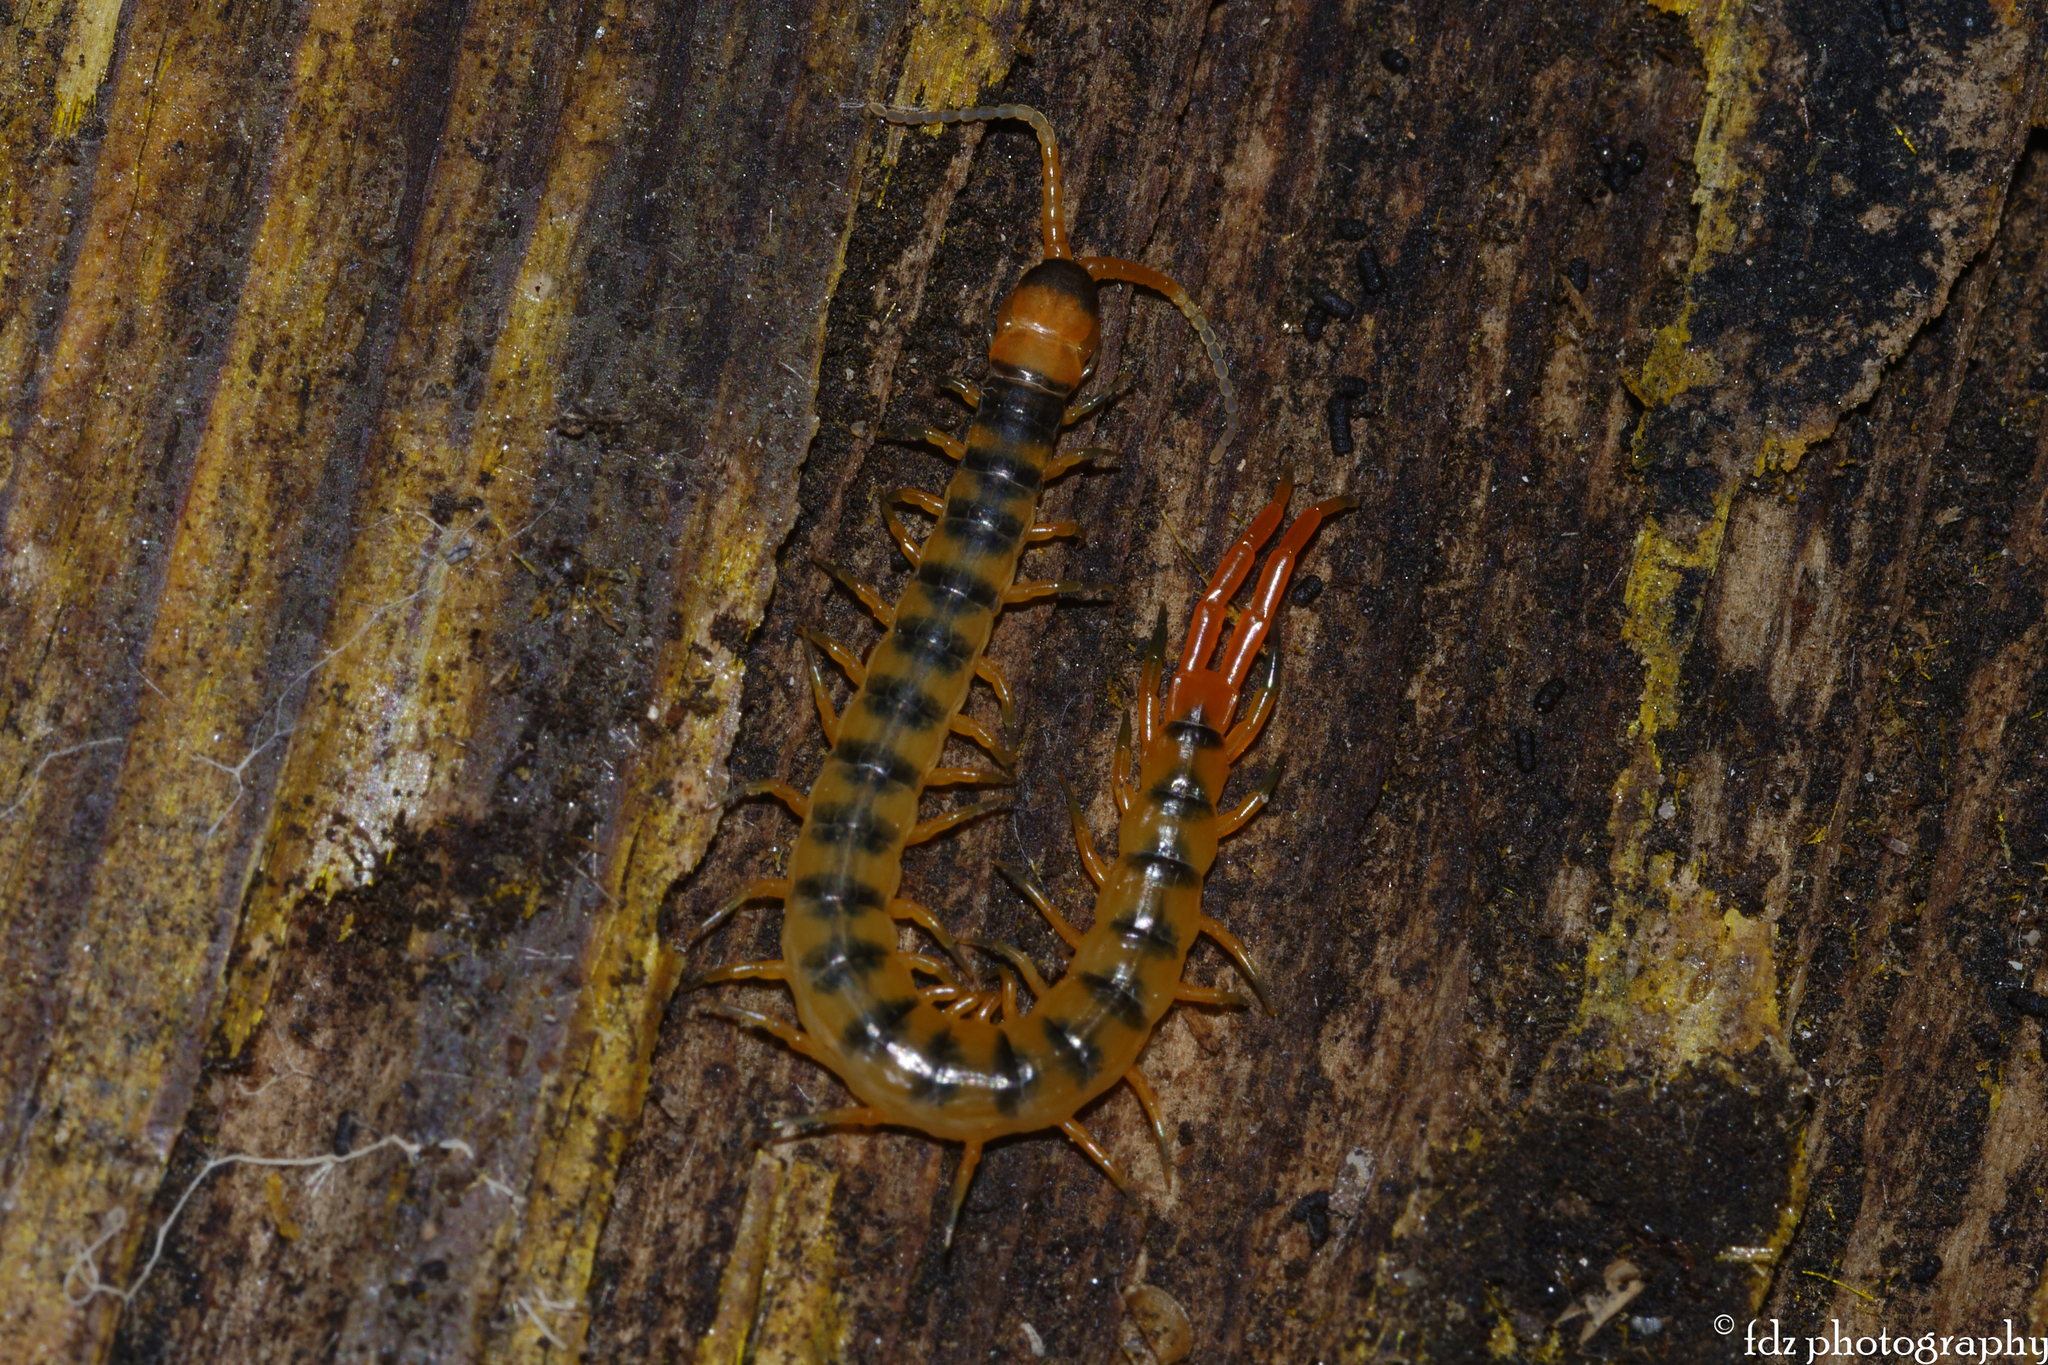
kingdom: Animalia
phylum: Arthropoda
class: Chilopoda
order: Scolopendromorpha
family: Scolopendridae
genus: Scolopendra
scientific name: Scolopendra cingulata
